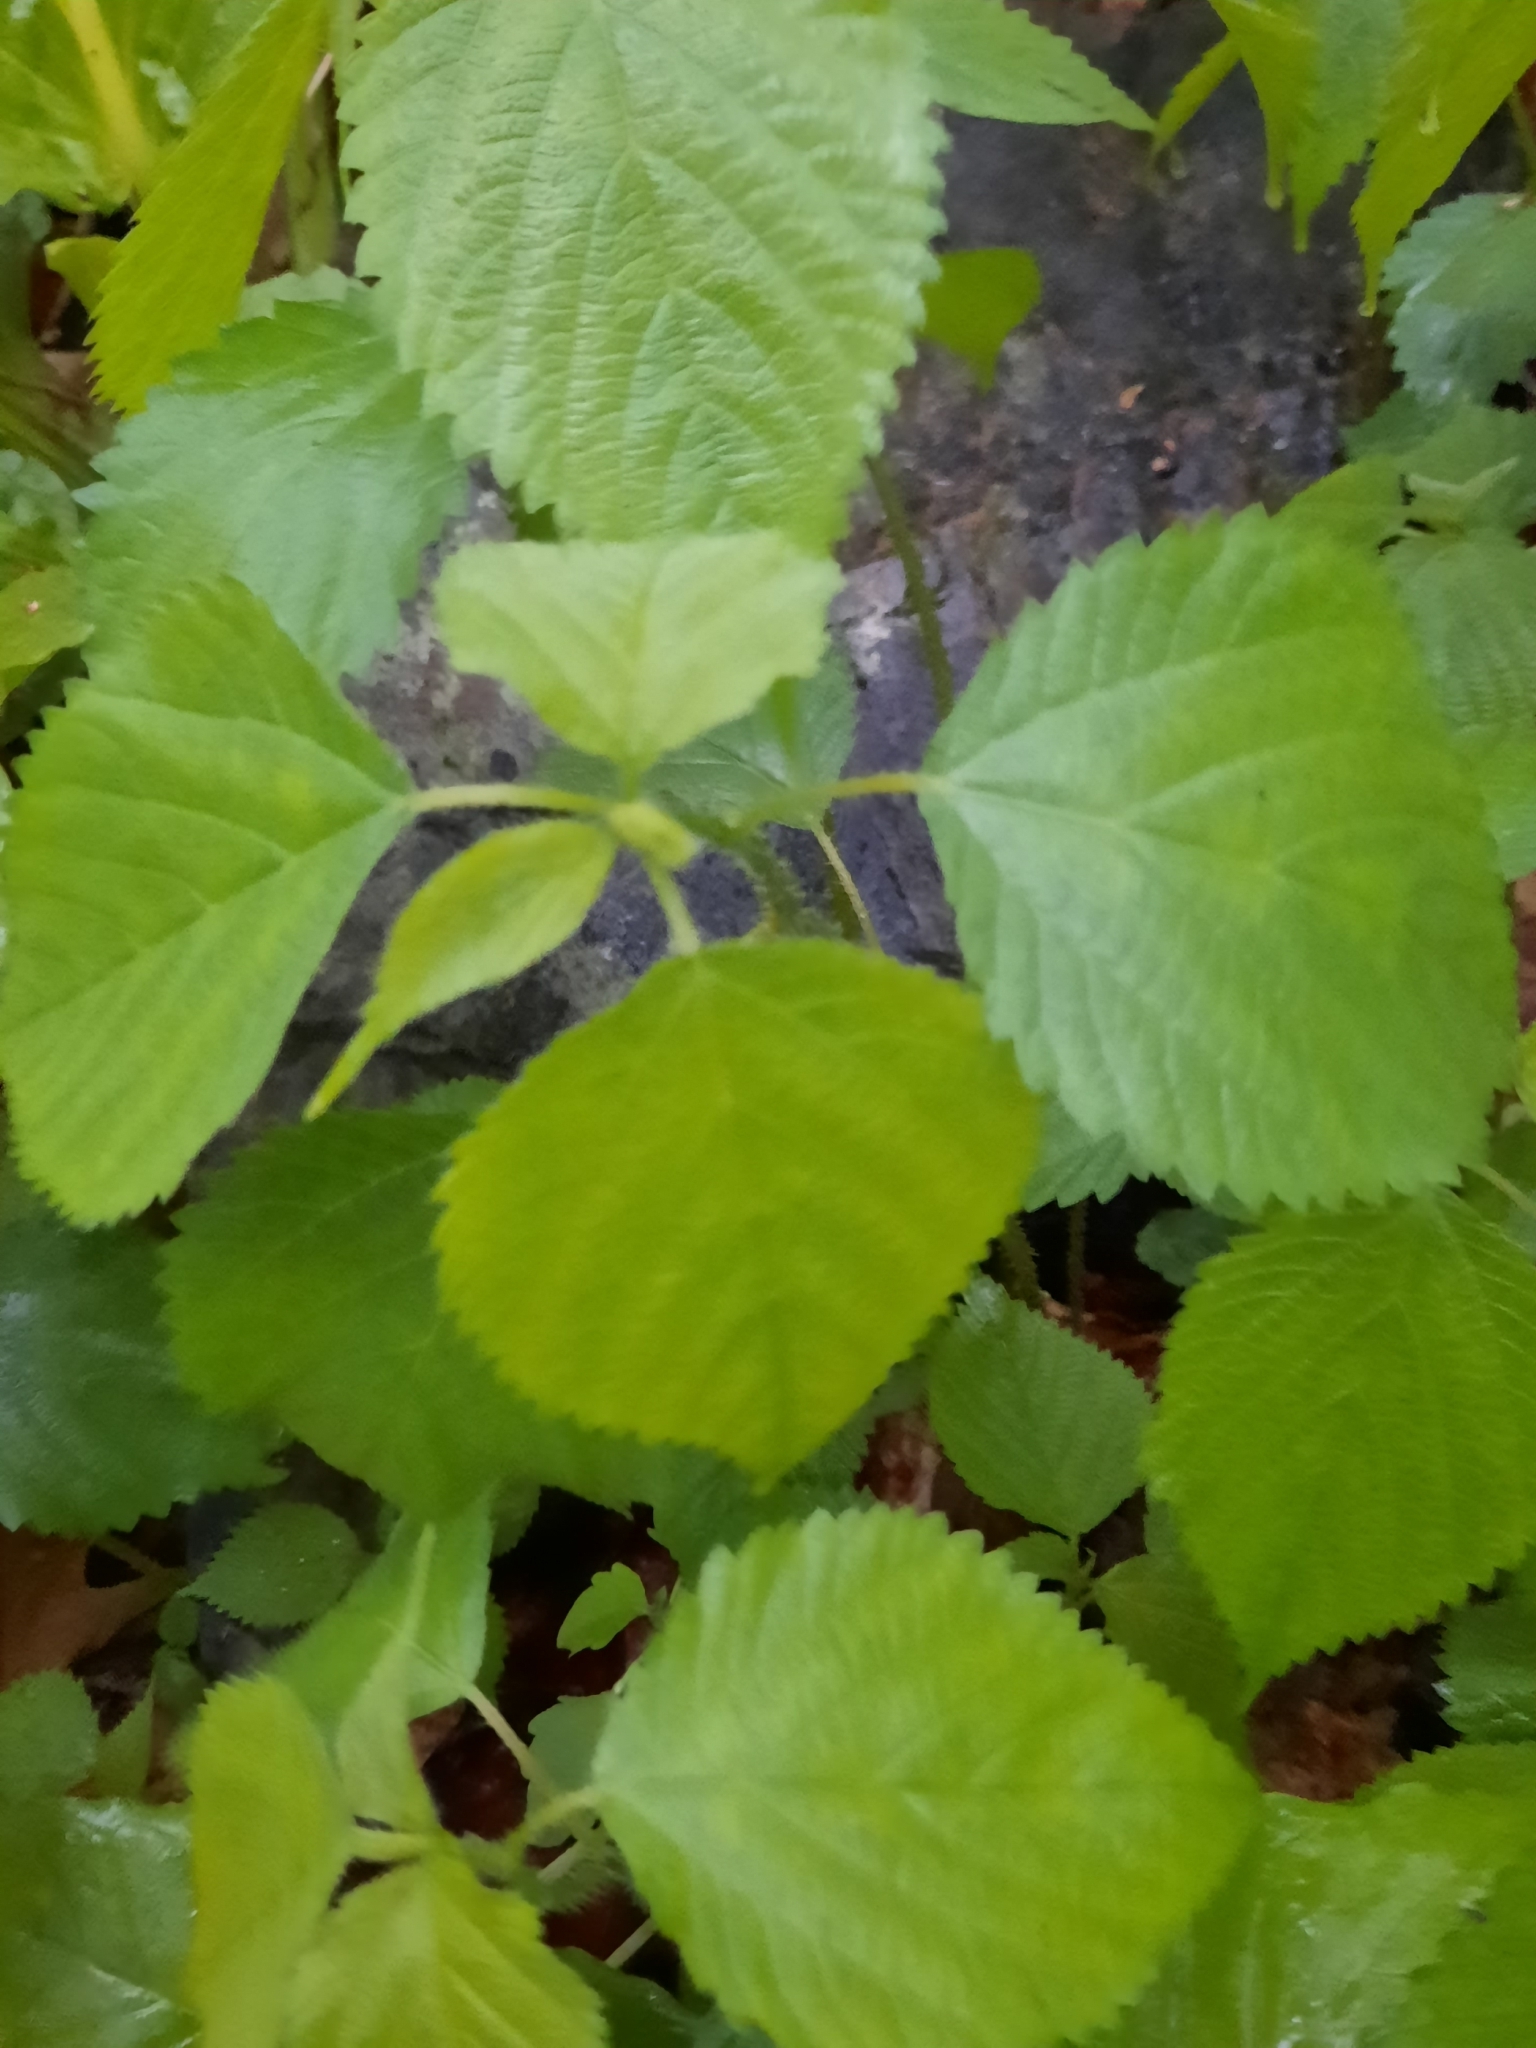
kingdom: Plantae
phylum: Tracheophyta
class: Magnoliopsida
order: Rosales
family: Urticaceae
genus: Laportea
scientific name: Laportea canadensis
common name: Canada nettle
